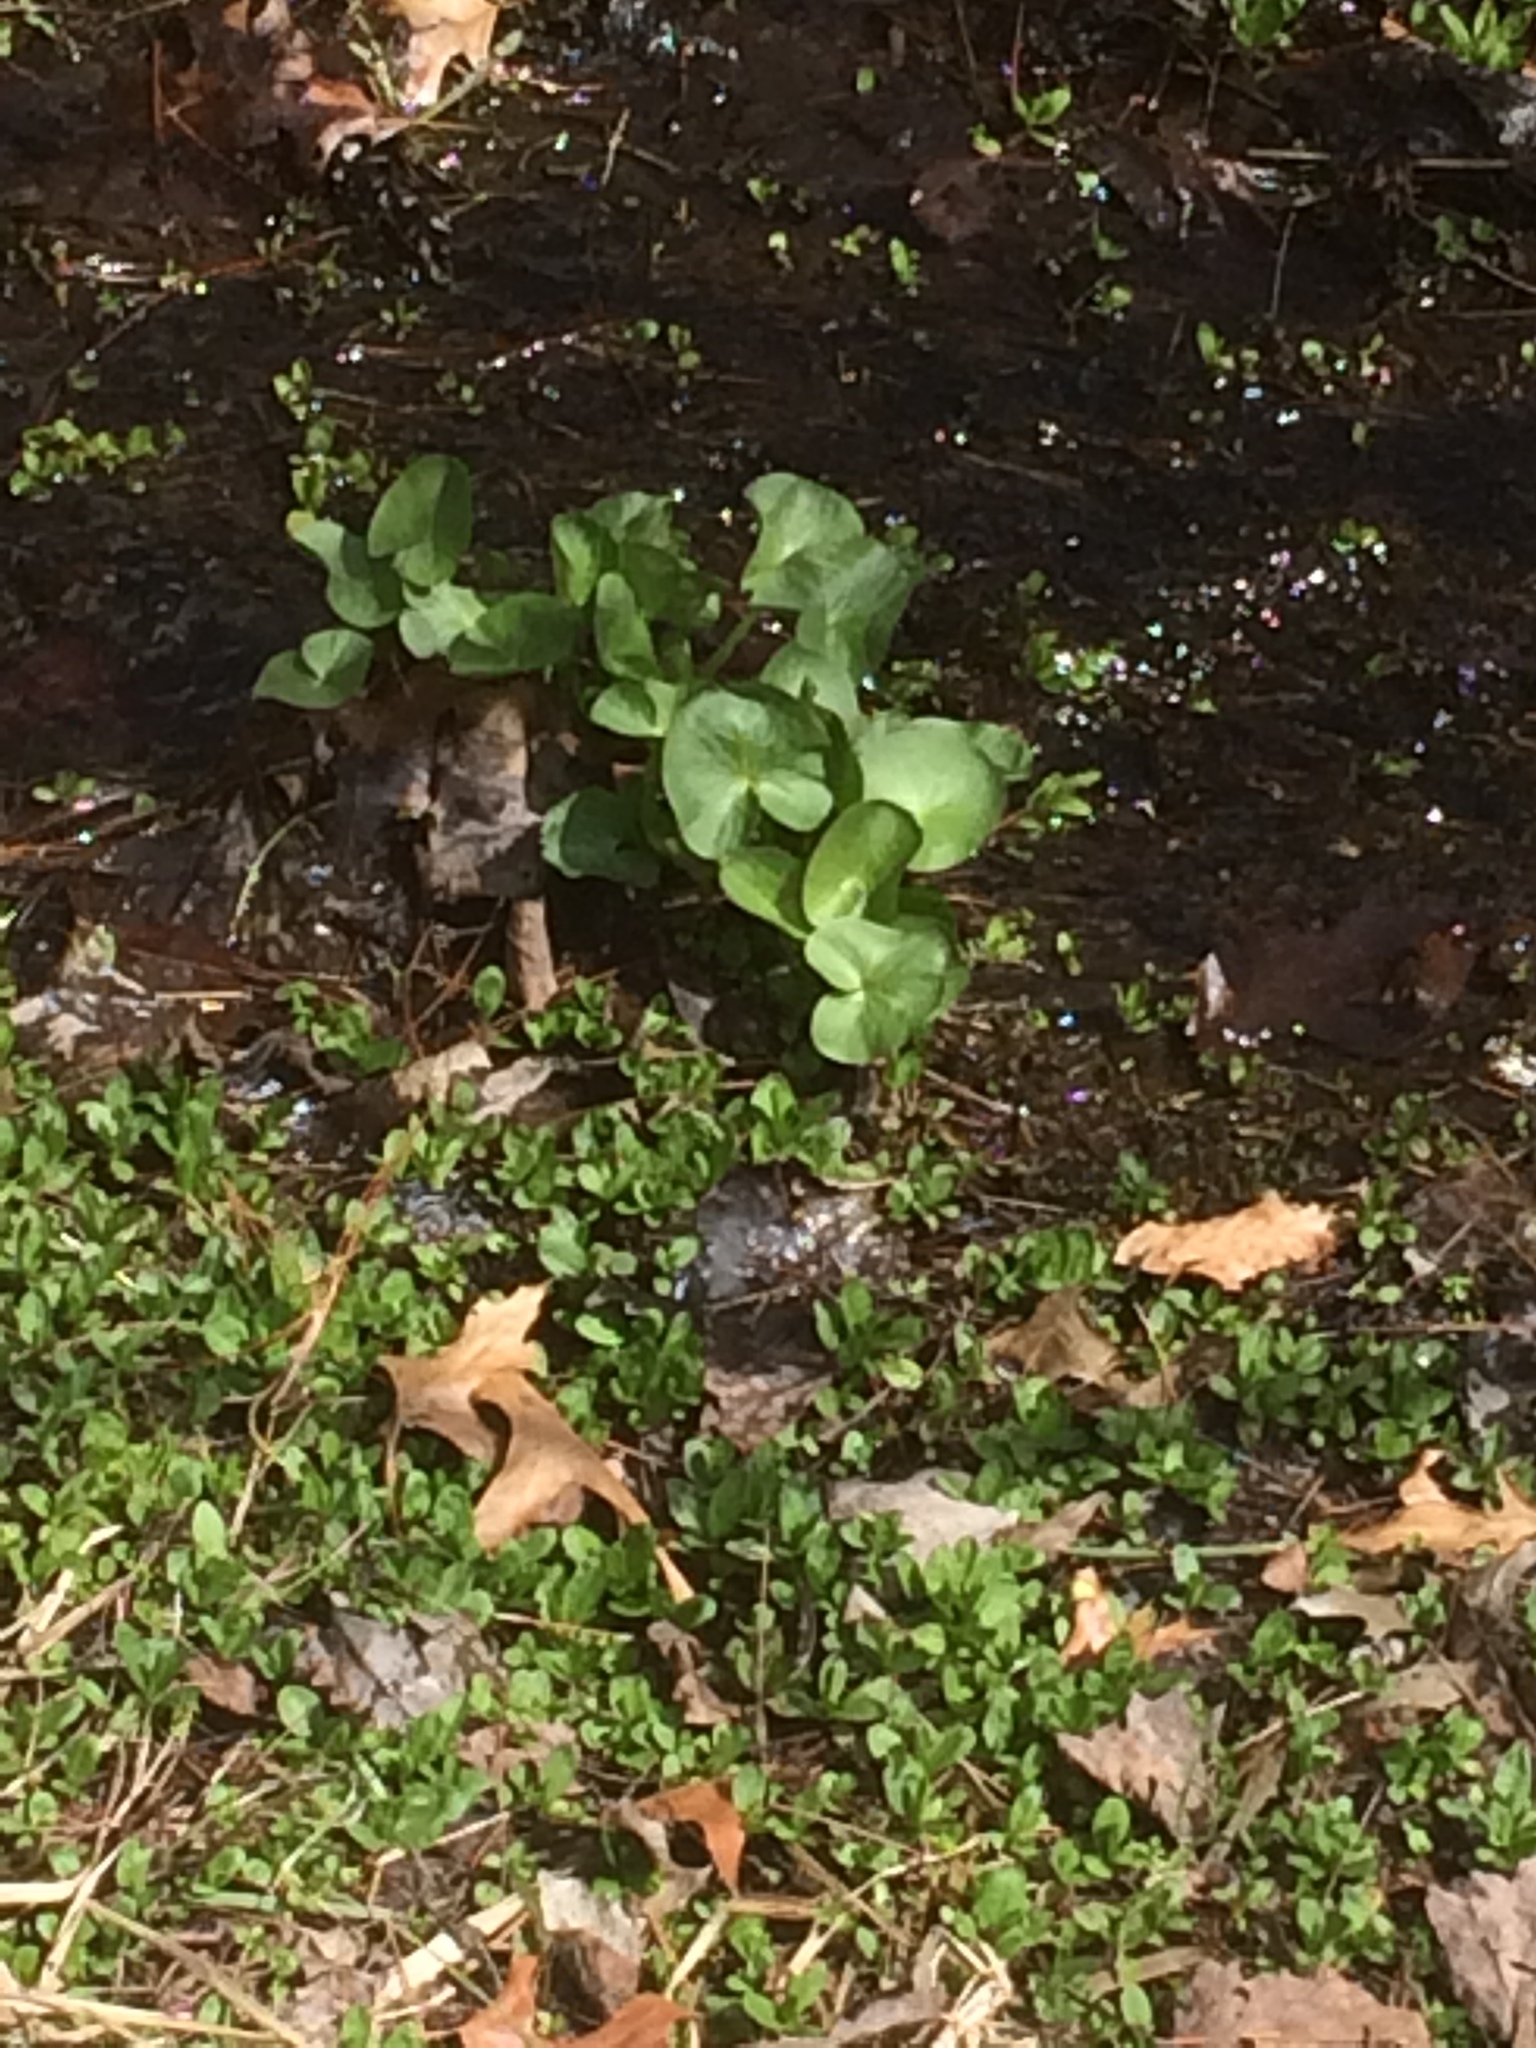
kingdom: Plantae
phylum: Tracheophyta
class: Magnoliopsida
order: Ranunculales
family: Ranunculaceae
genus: Caltha
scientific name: Caltha palustris
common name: Marsh marigold
